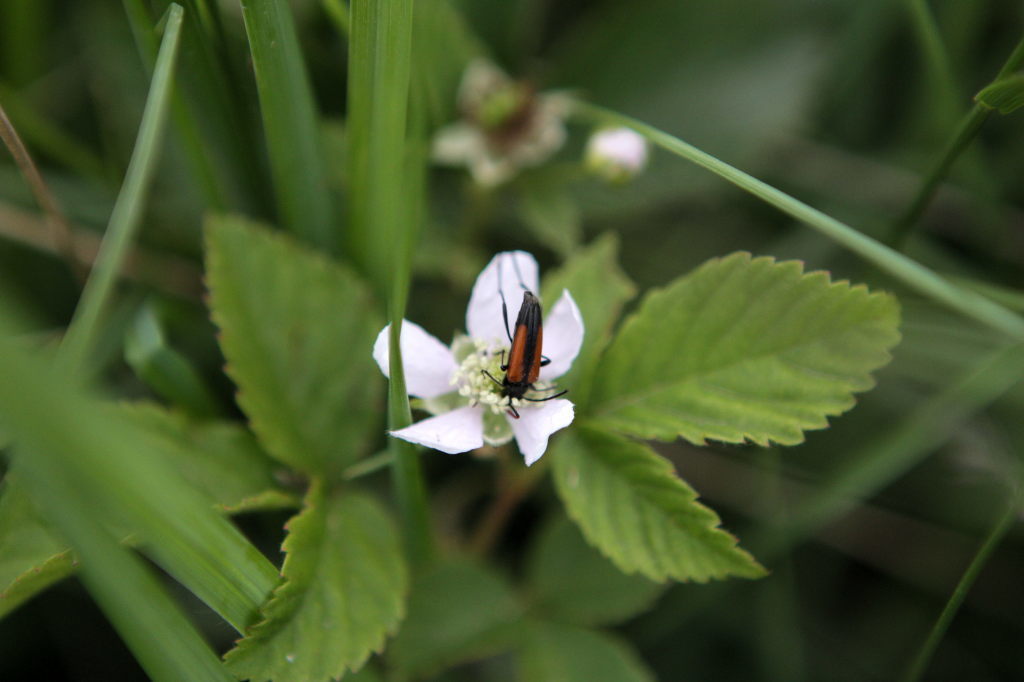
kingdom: Animalia
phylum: Arthropoda
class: Insecta
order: Coleoptera
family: Cerambycidae
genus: Stenurella
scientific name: Stenurella melanura
